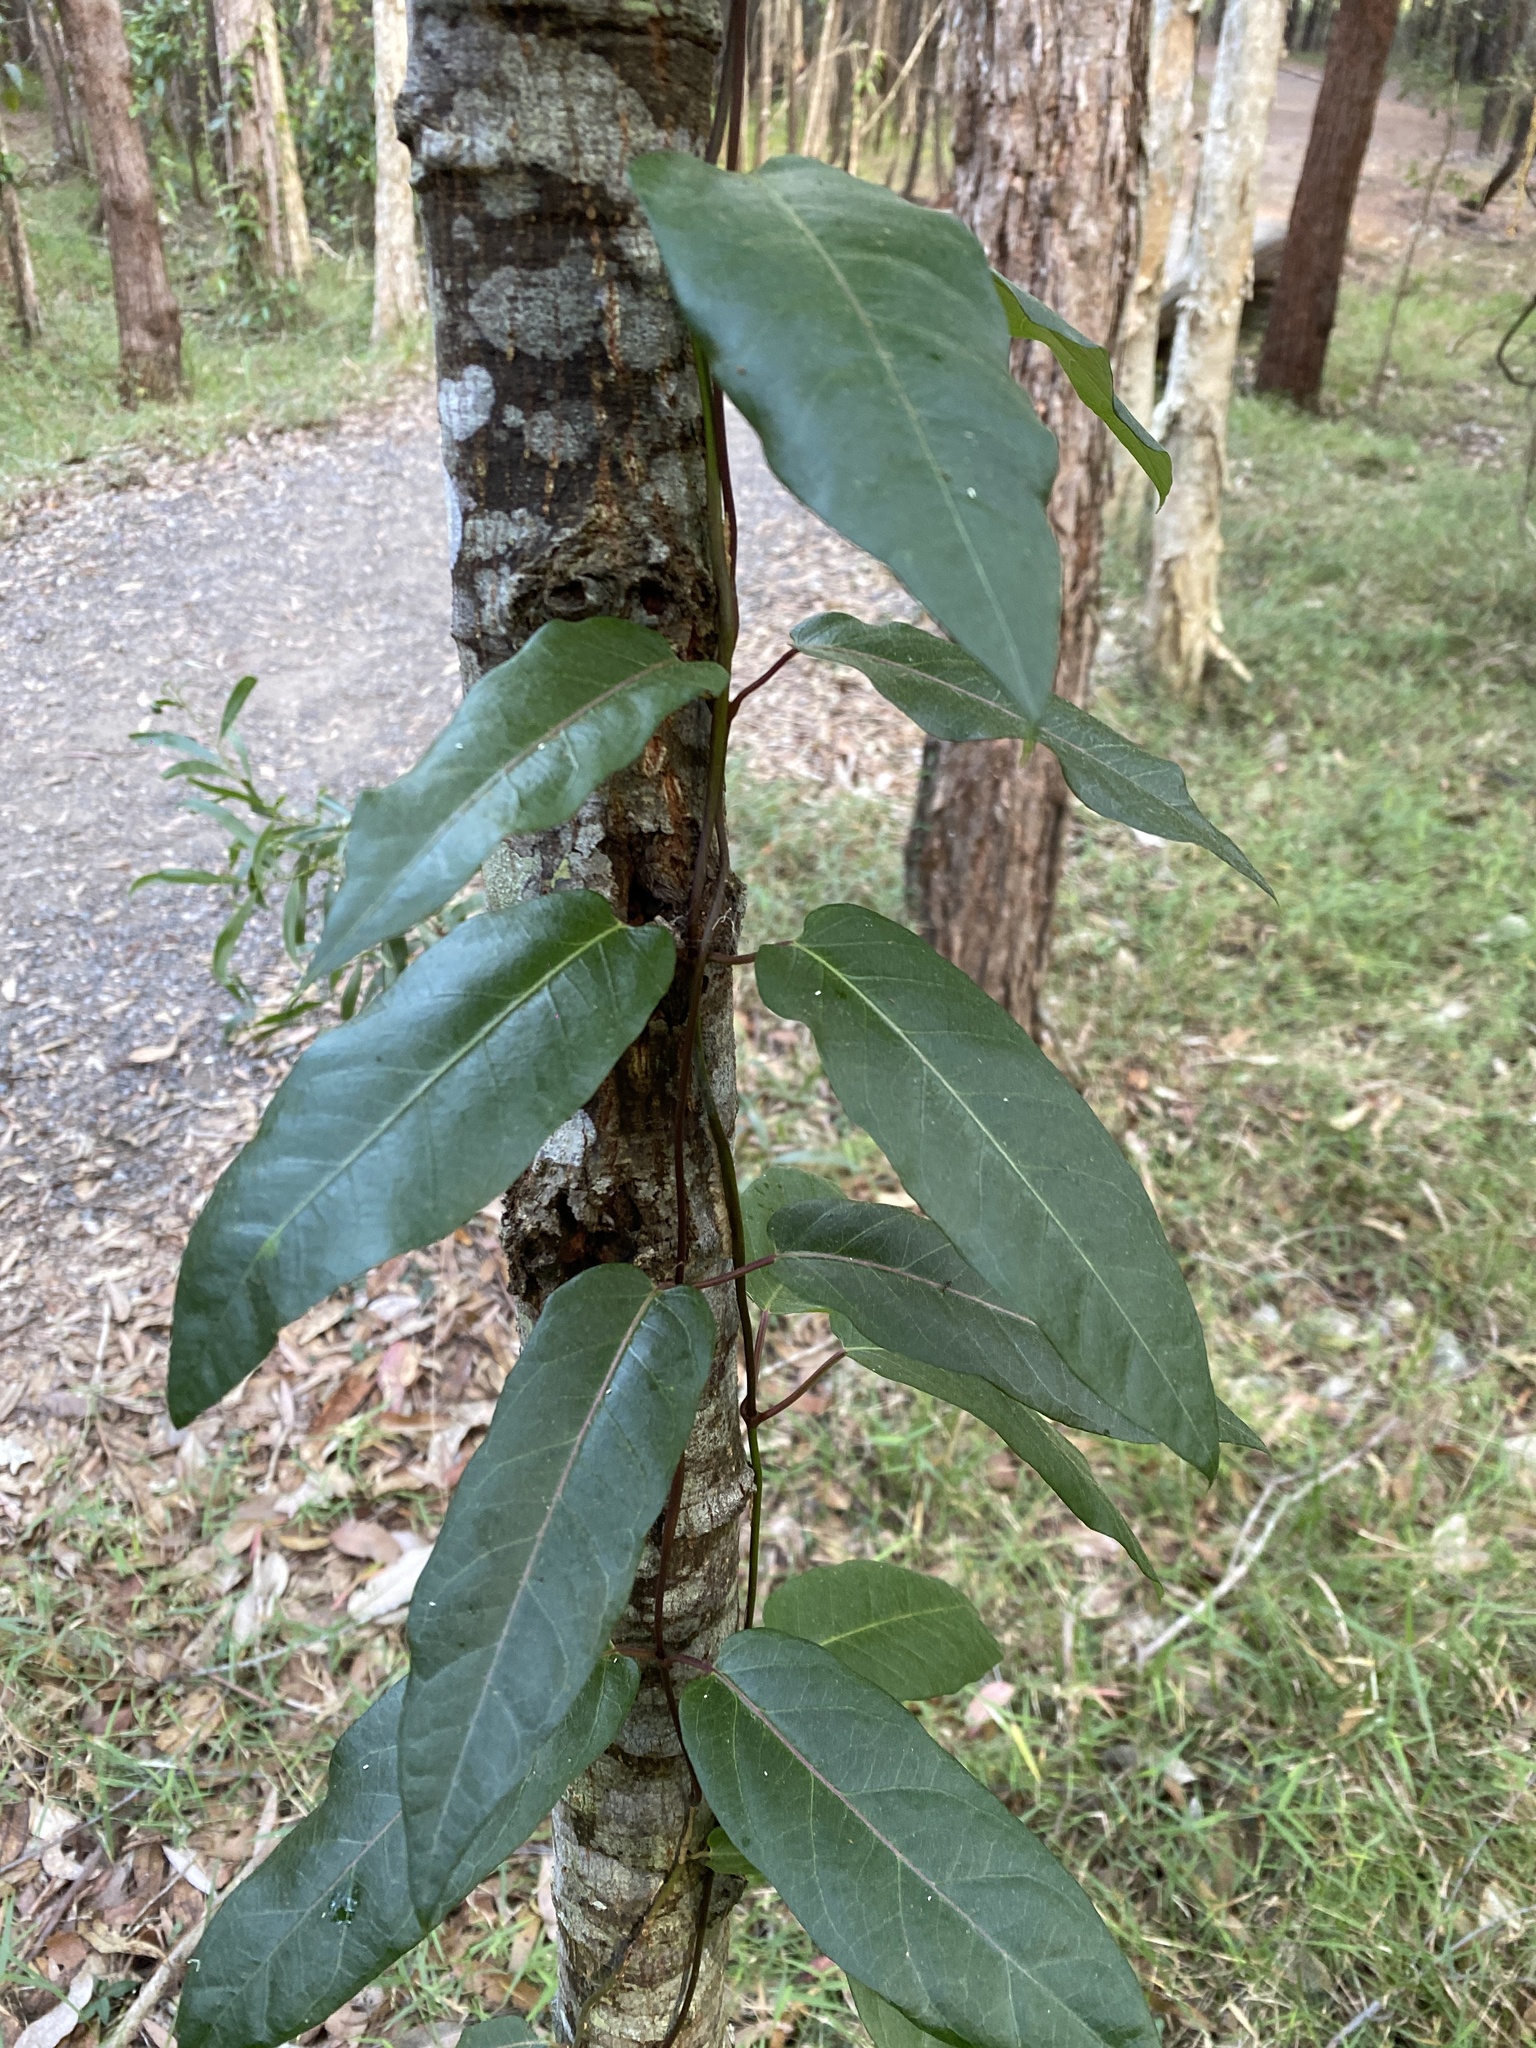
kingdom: Plantae
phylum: Tracheophyta
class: Magnoliopsida
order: Gentianales
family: Apocynaceae
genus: Parsonsia
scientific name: Parsonsia straminea
